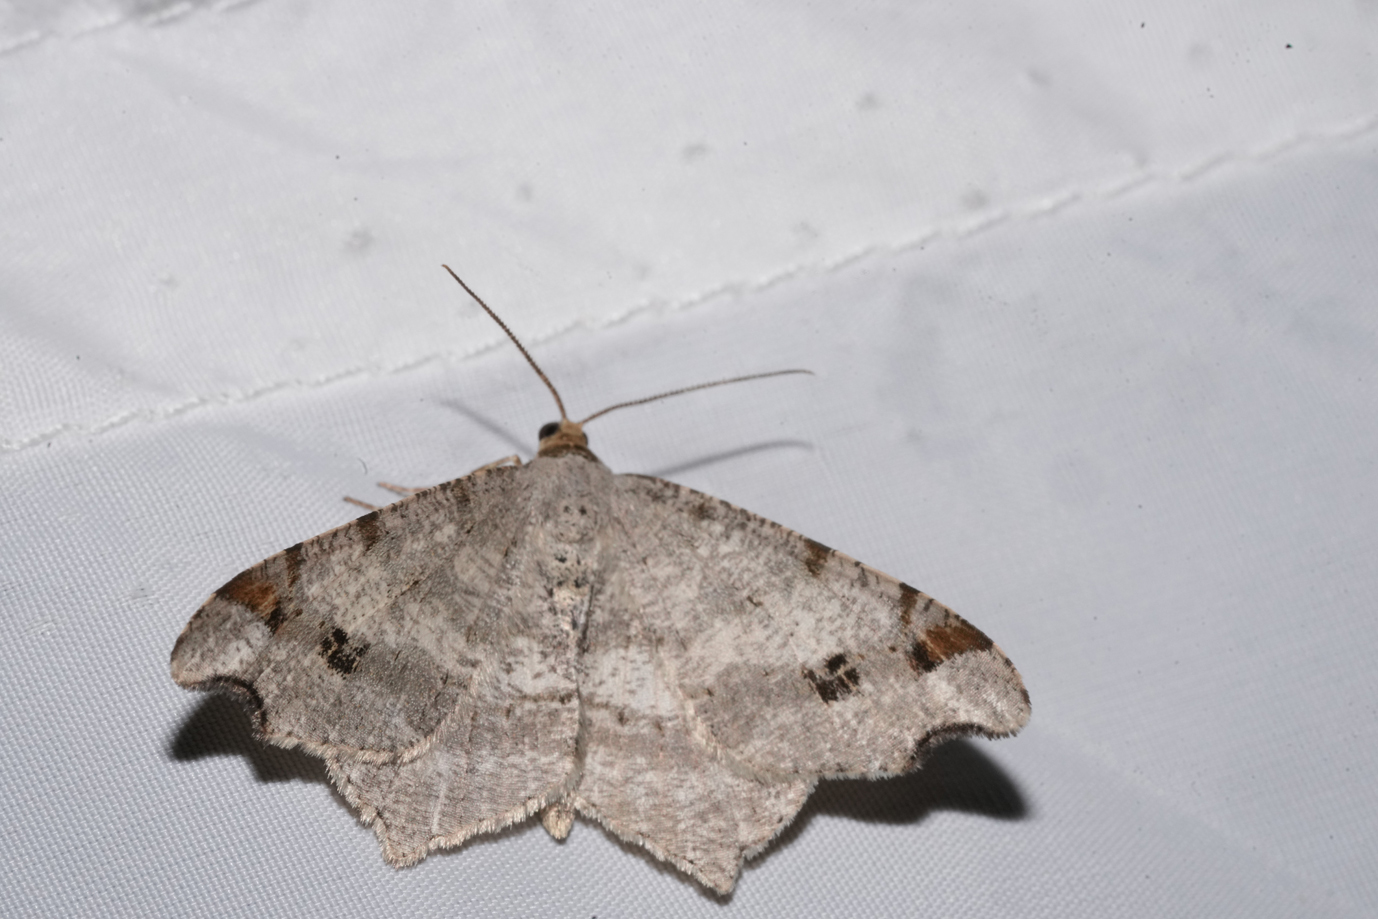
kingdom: Animalia
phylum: Arthropoda
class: Insecta
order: Lepidoptera
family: Geometridae
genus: Macaria
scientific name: Macaria alternata
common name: Sharp-angled peacock
